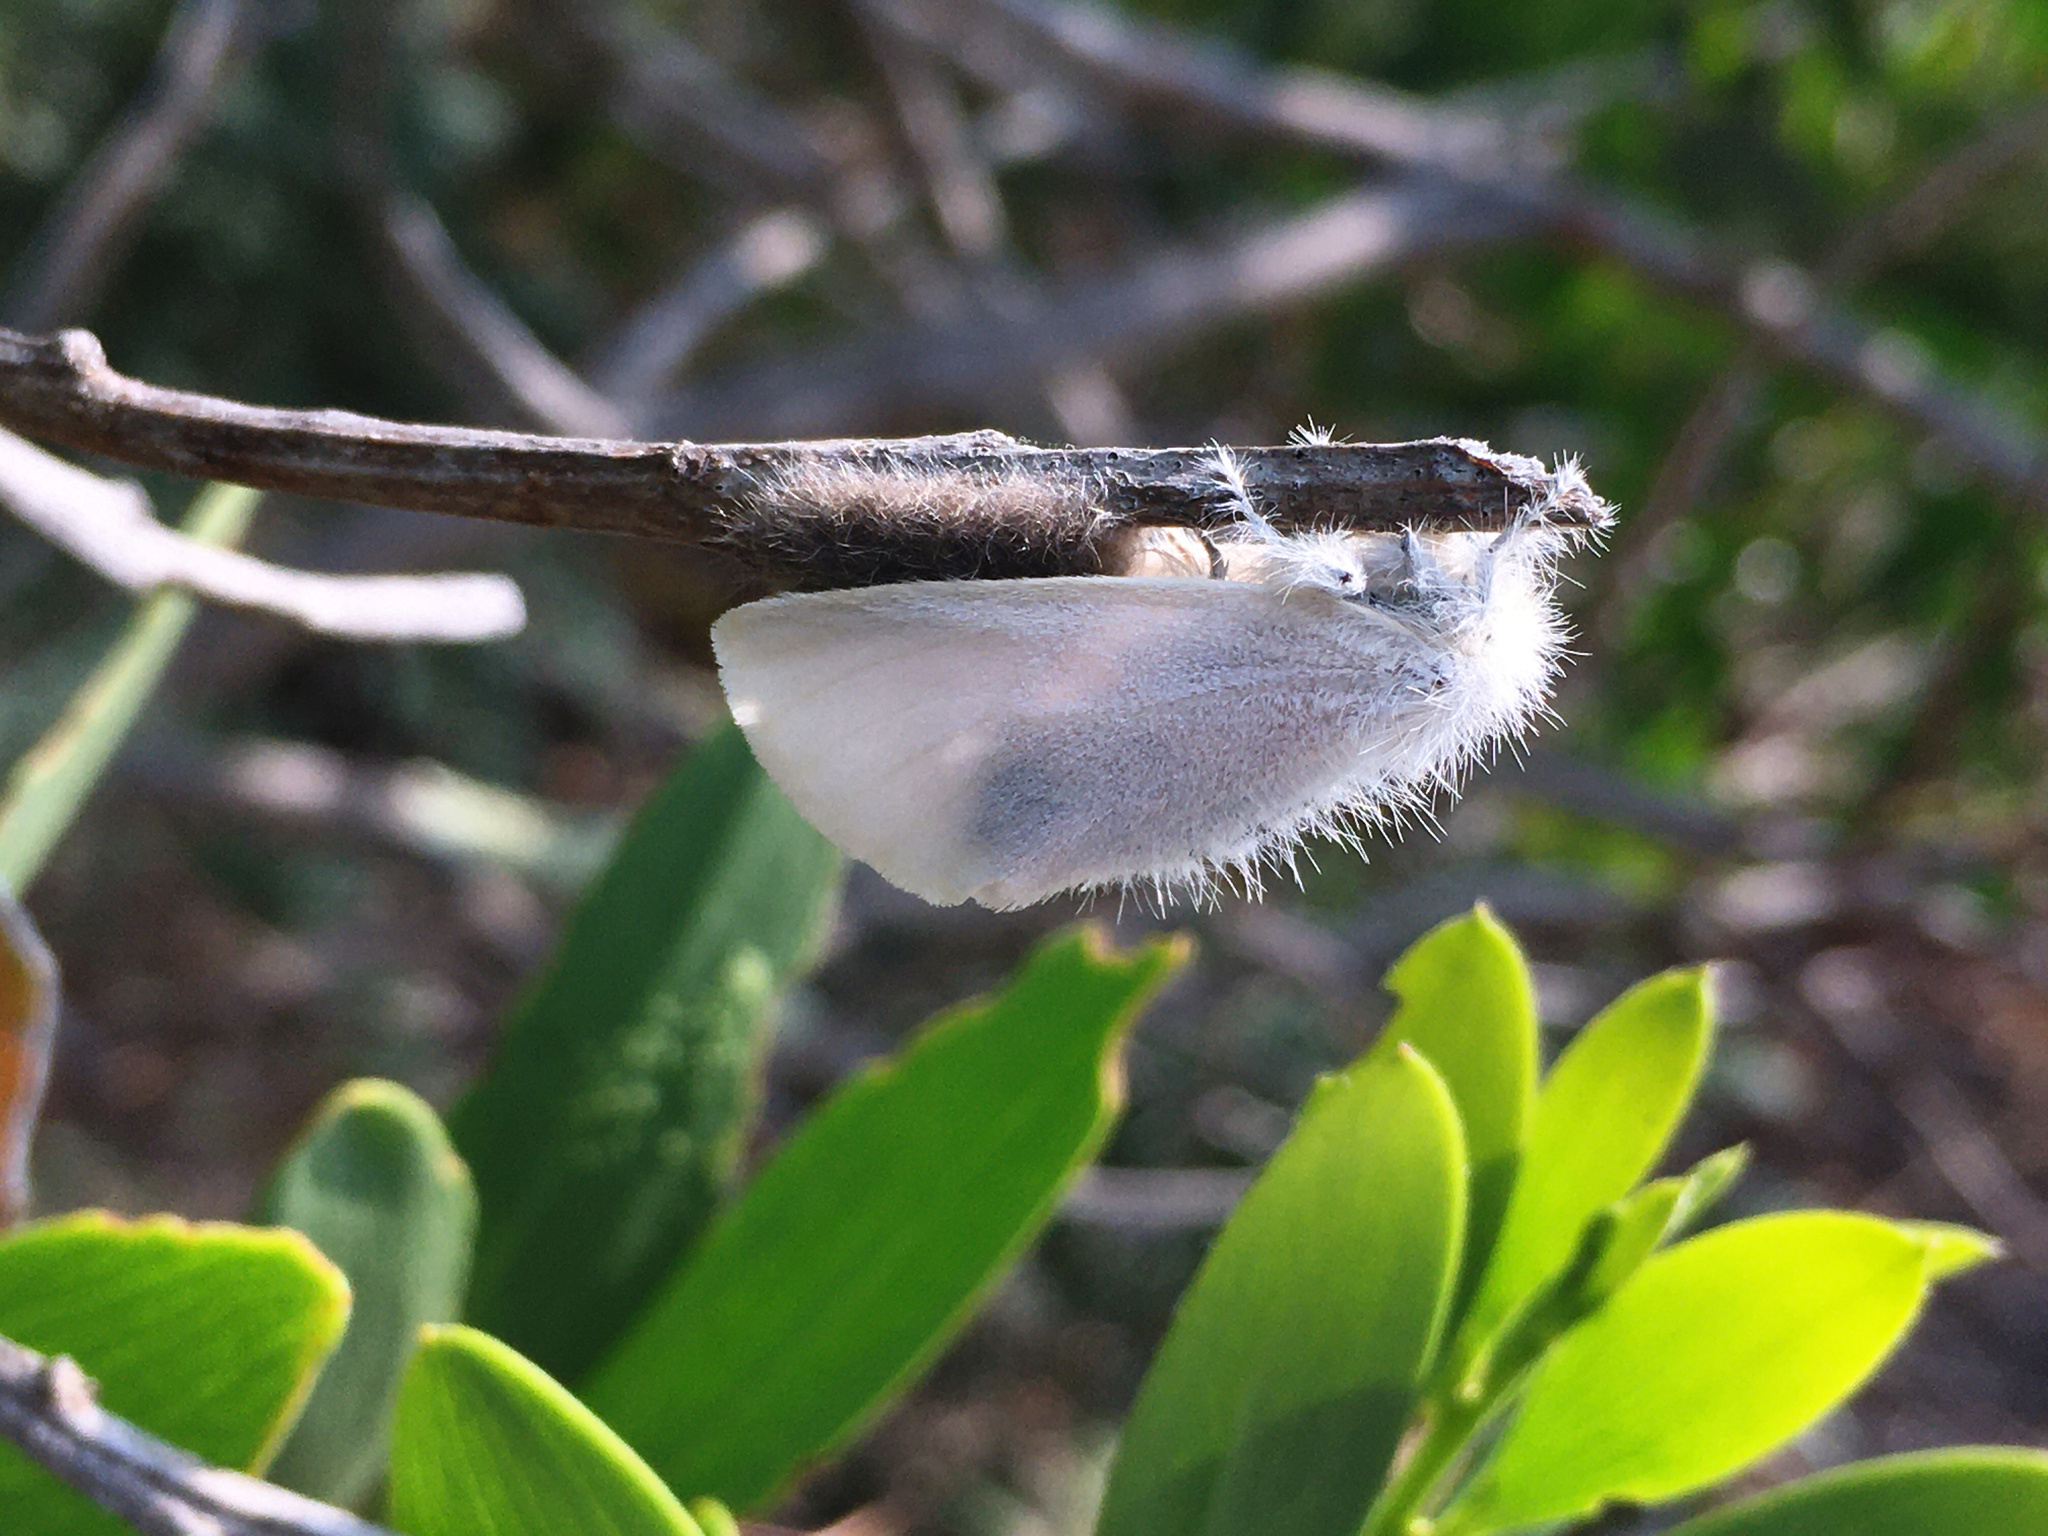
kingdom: Animalia
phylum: Arthropoda
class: Insecta
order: Lepidoptera
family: Erebidae
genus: Acyphas
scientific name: Acyphas semiochrea
